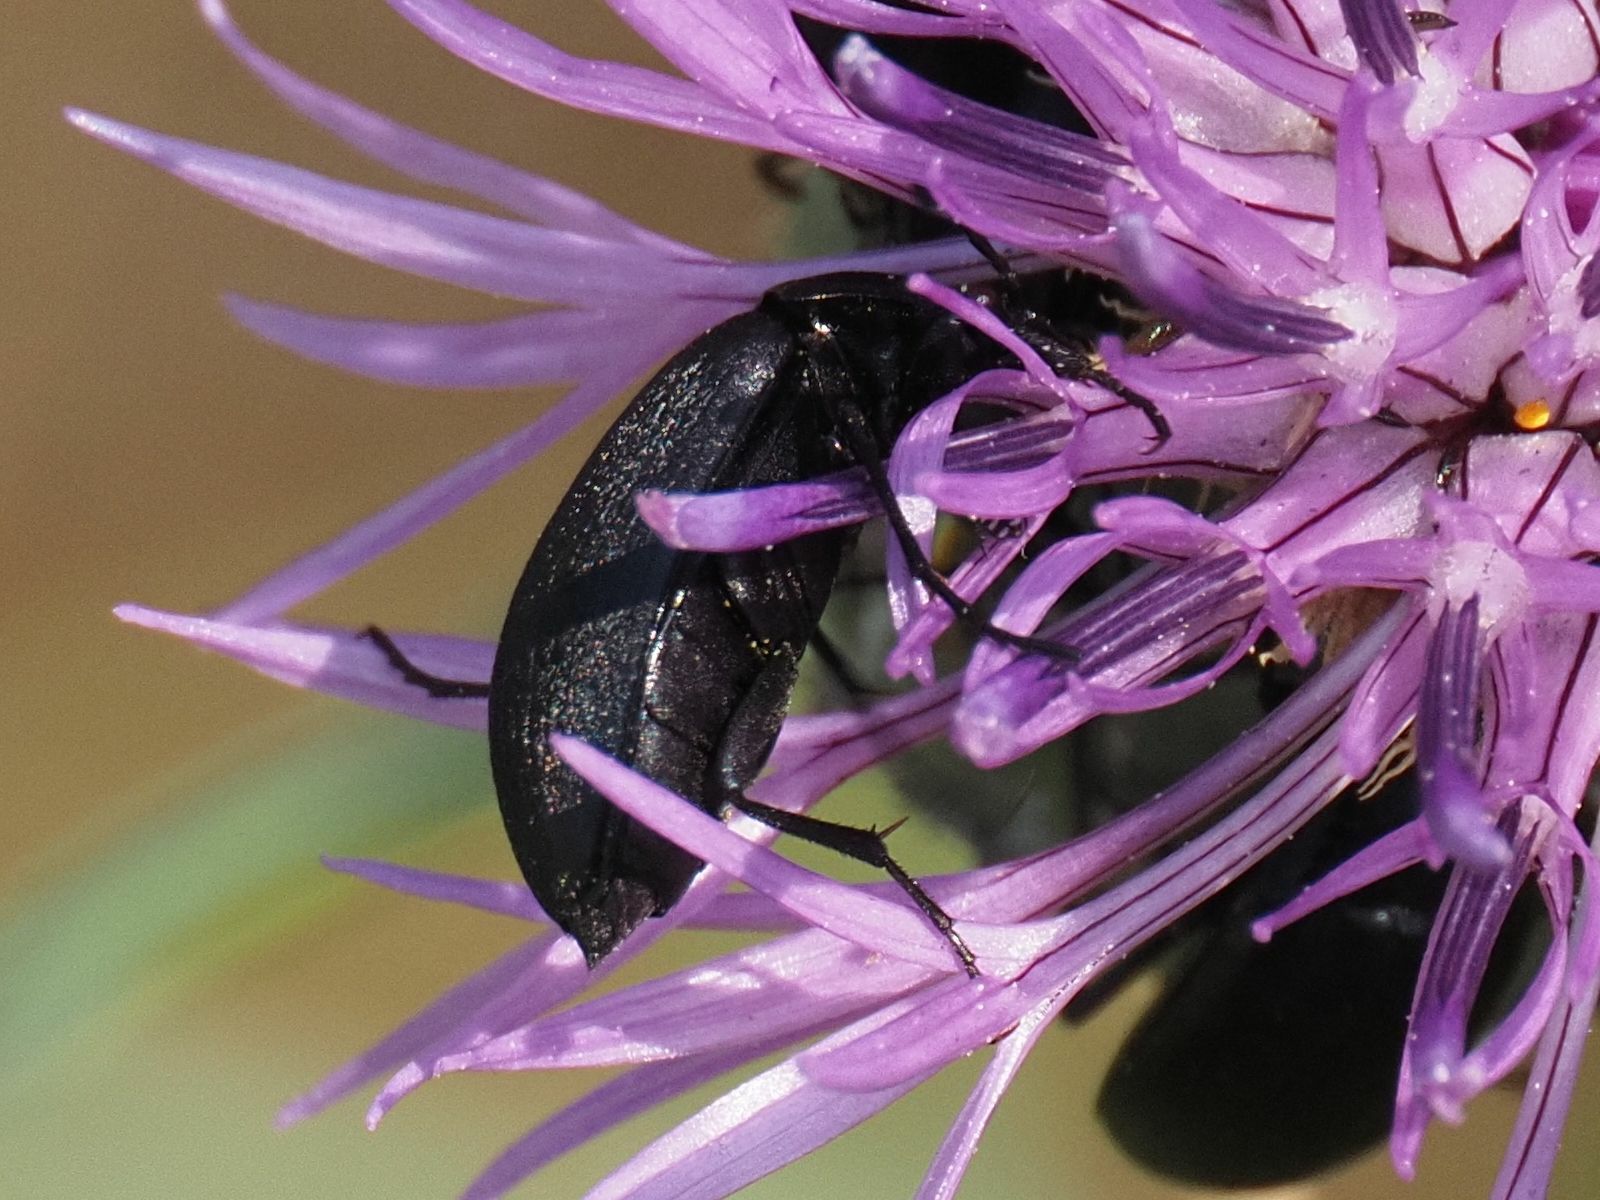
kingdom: Animalia
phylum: Arthropoda
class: Insecta
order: Coleoptera
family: Tenebrionidae
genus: Podonta
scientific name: Podonta nigrita
